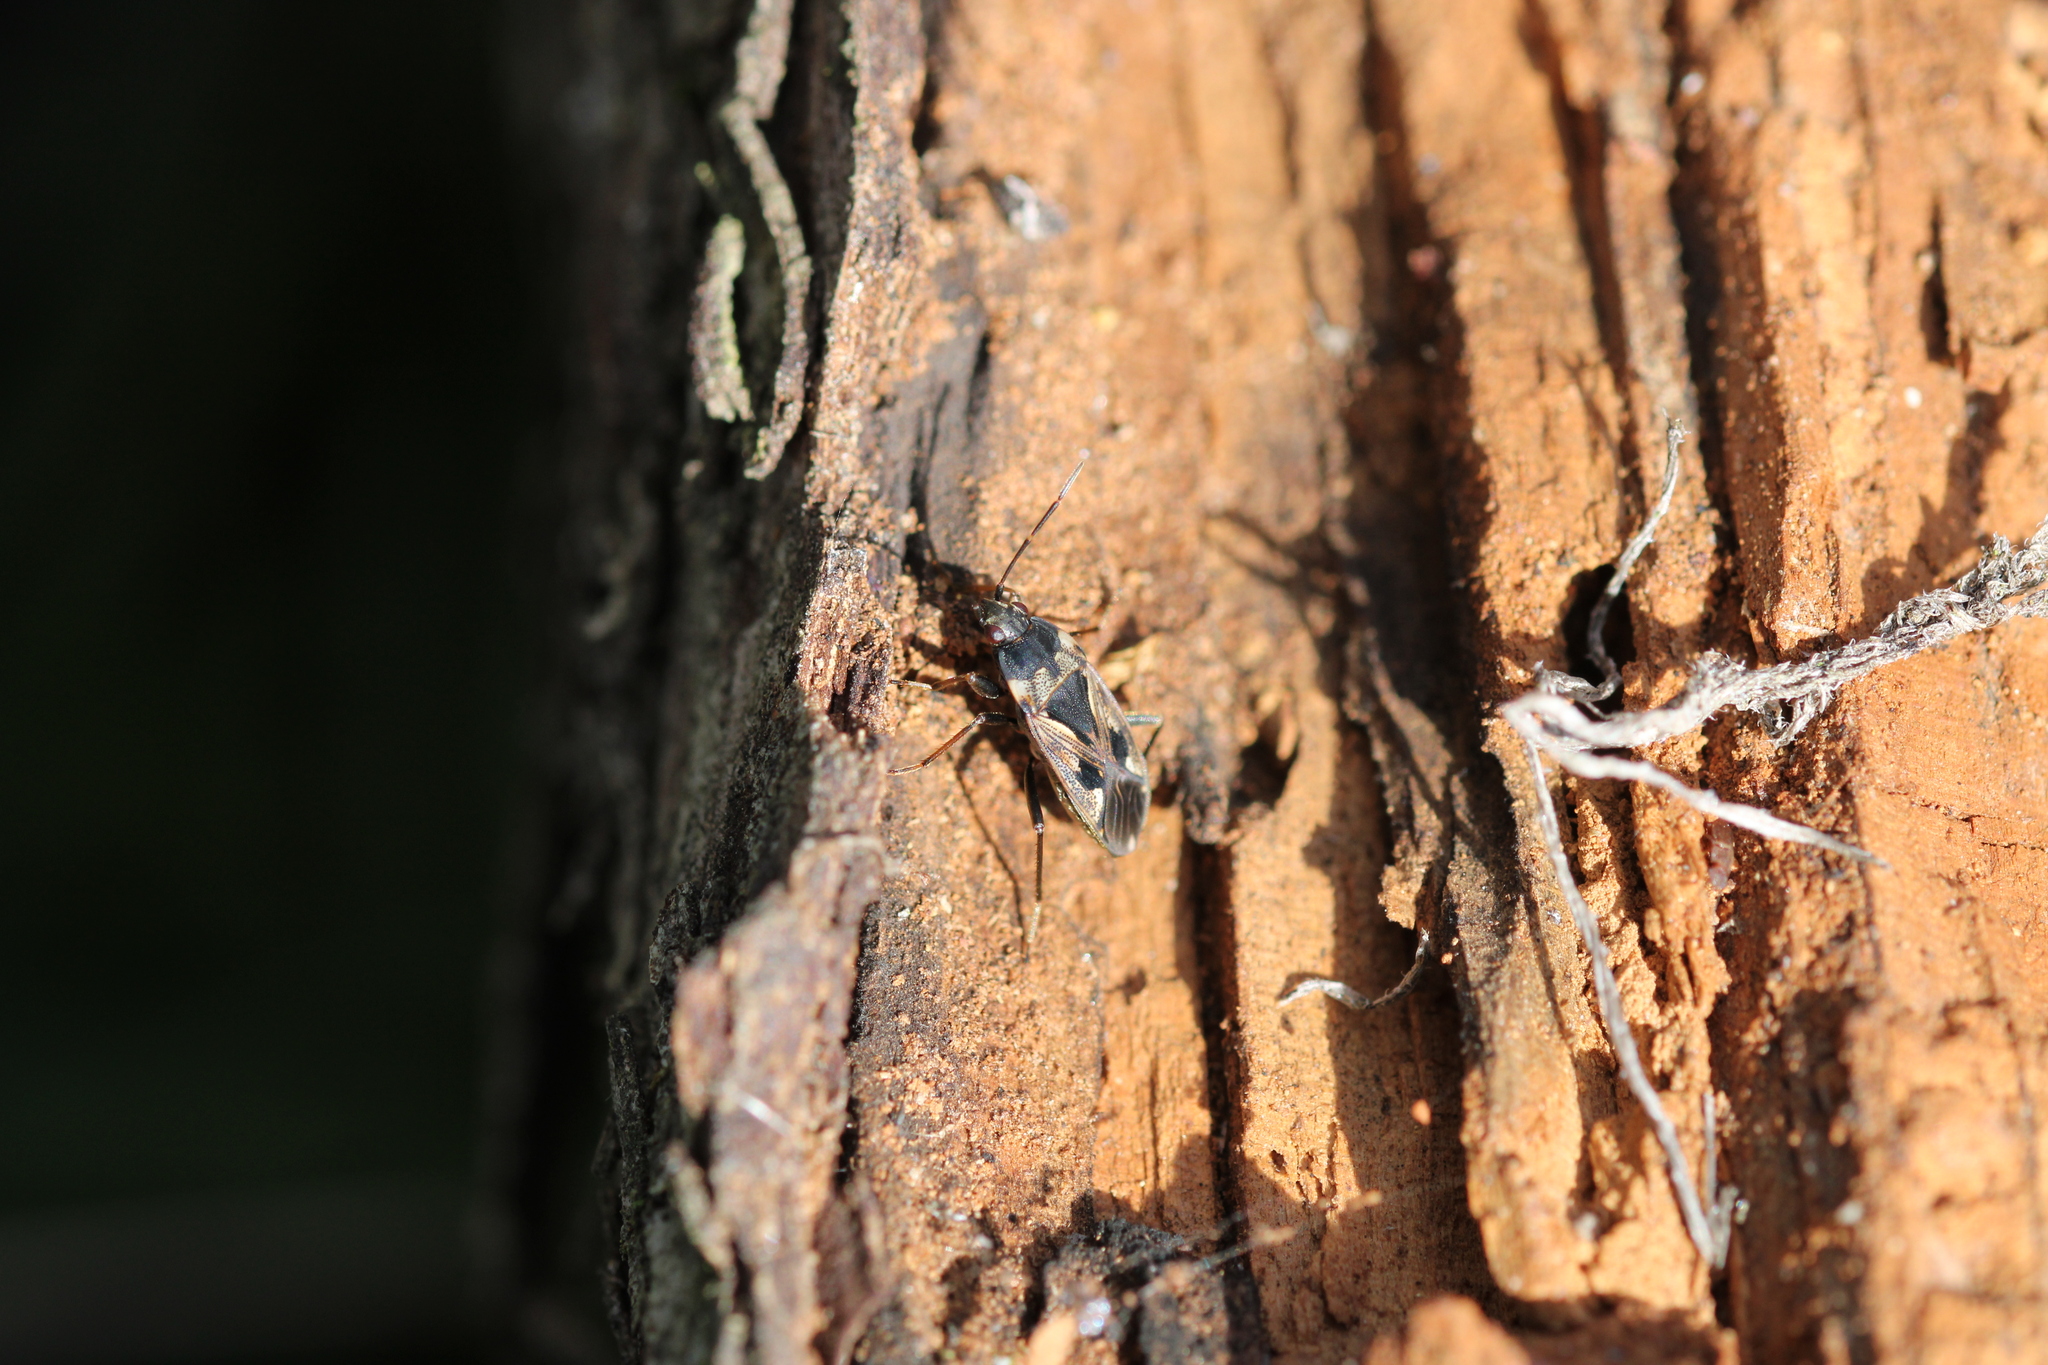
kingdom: Animalia
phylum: Arthropoda
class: Insecta
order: Hemiptera
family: Rhyparochromidae
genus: Rhyparochromus
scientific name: Rhyparochromus vulgaris
